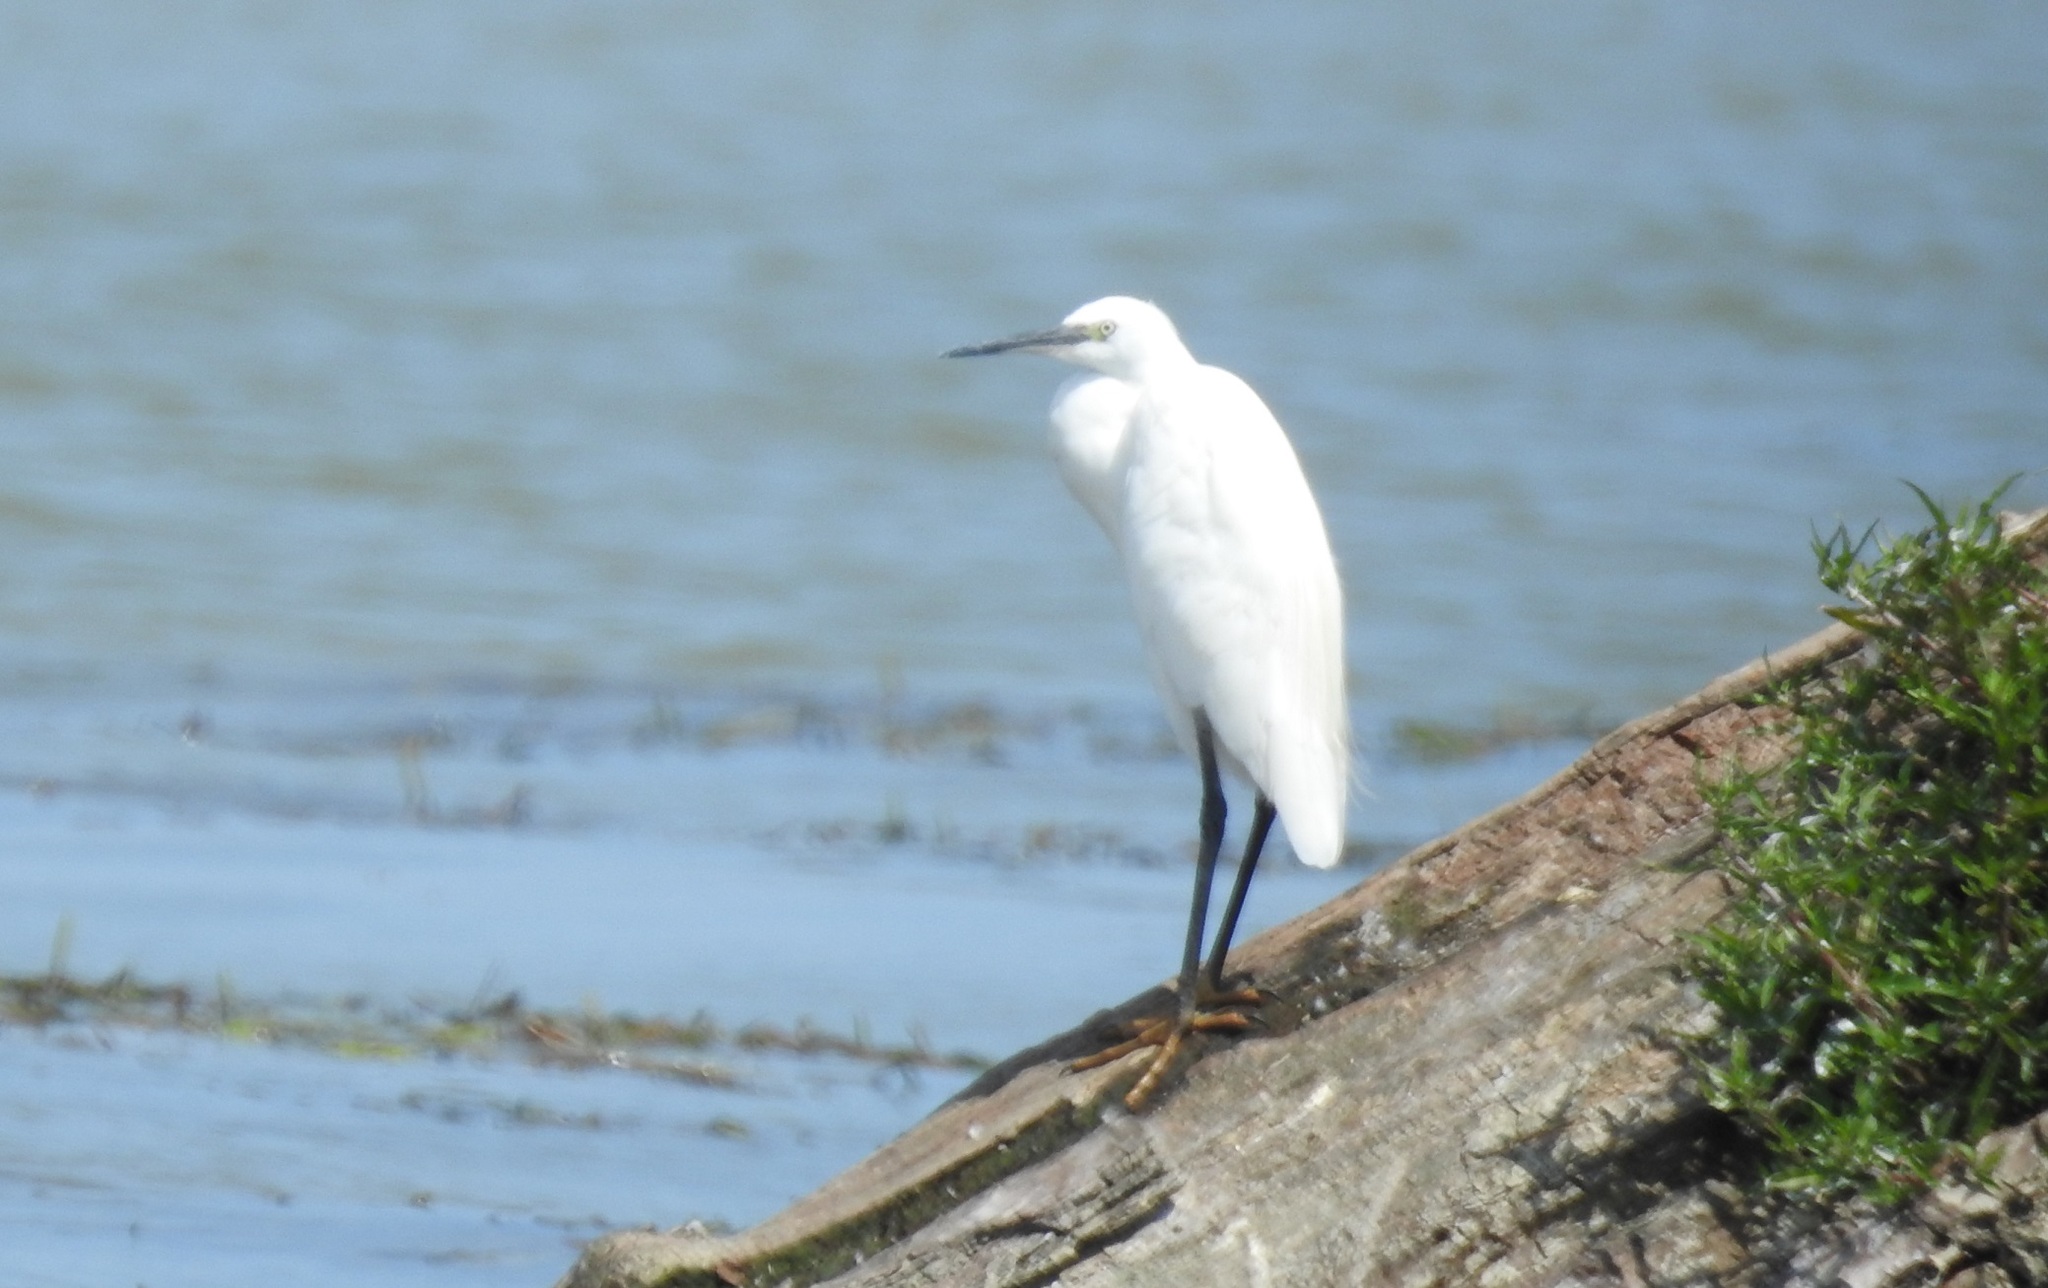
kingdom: Animalia
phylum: Chordata
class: Aves
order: Pelecaniformes
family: Ardeidae
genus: Egretta
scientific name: Egretta garzetta
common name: Little egret
